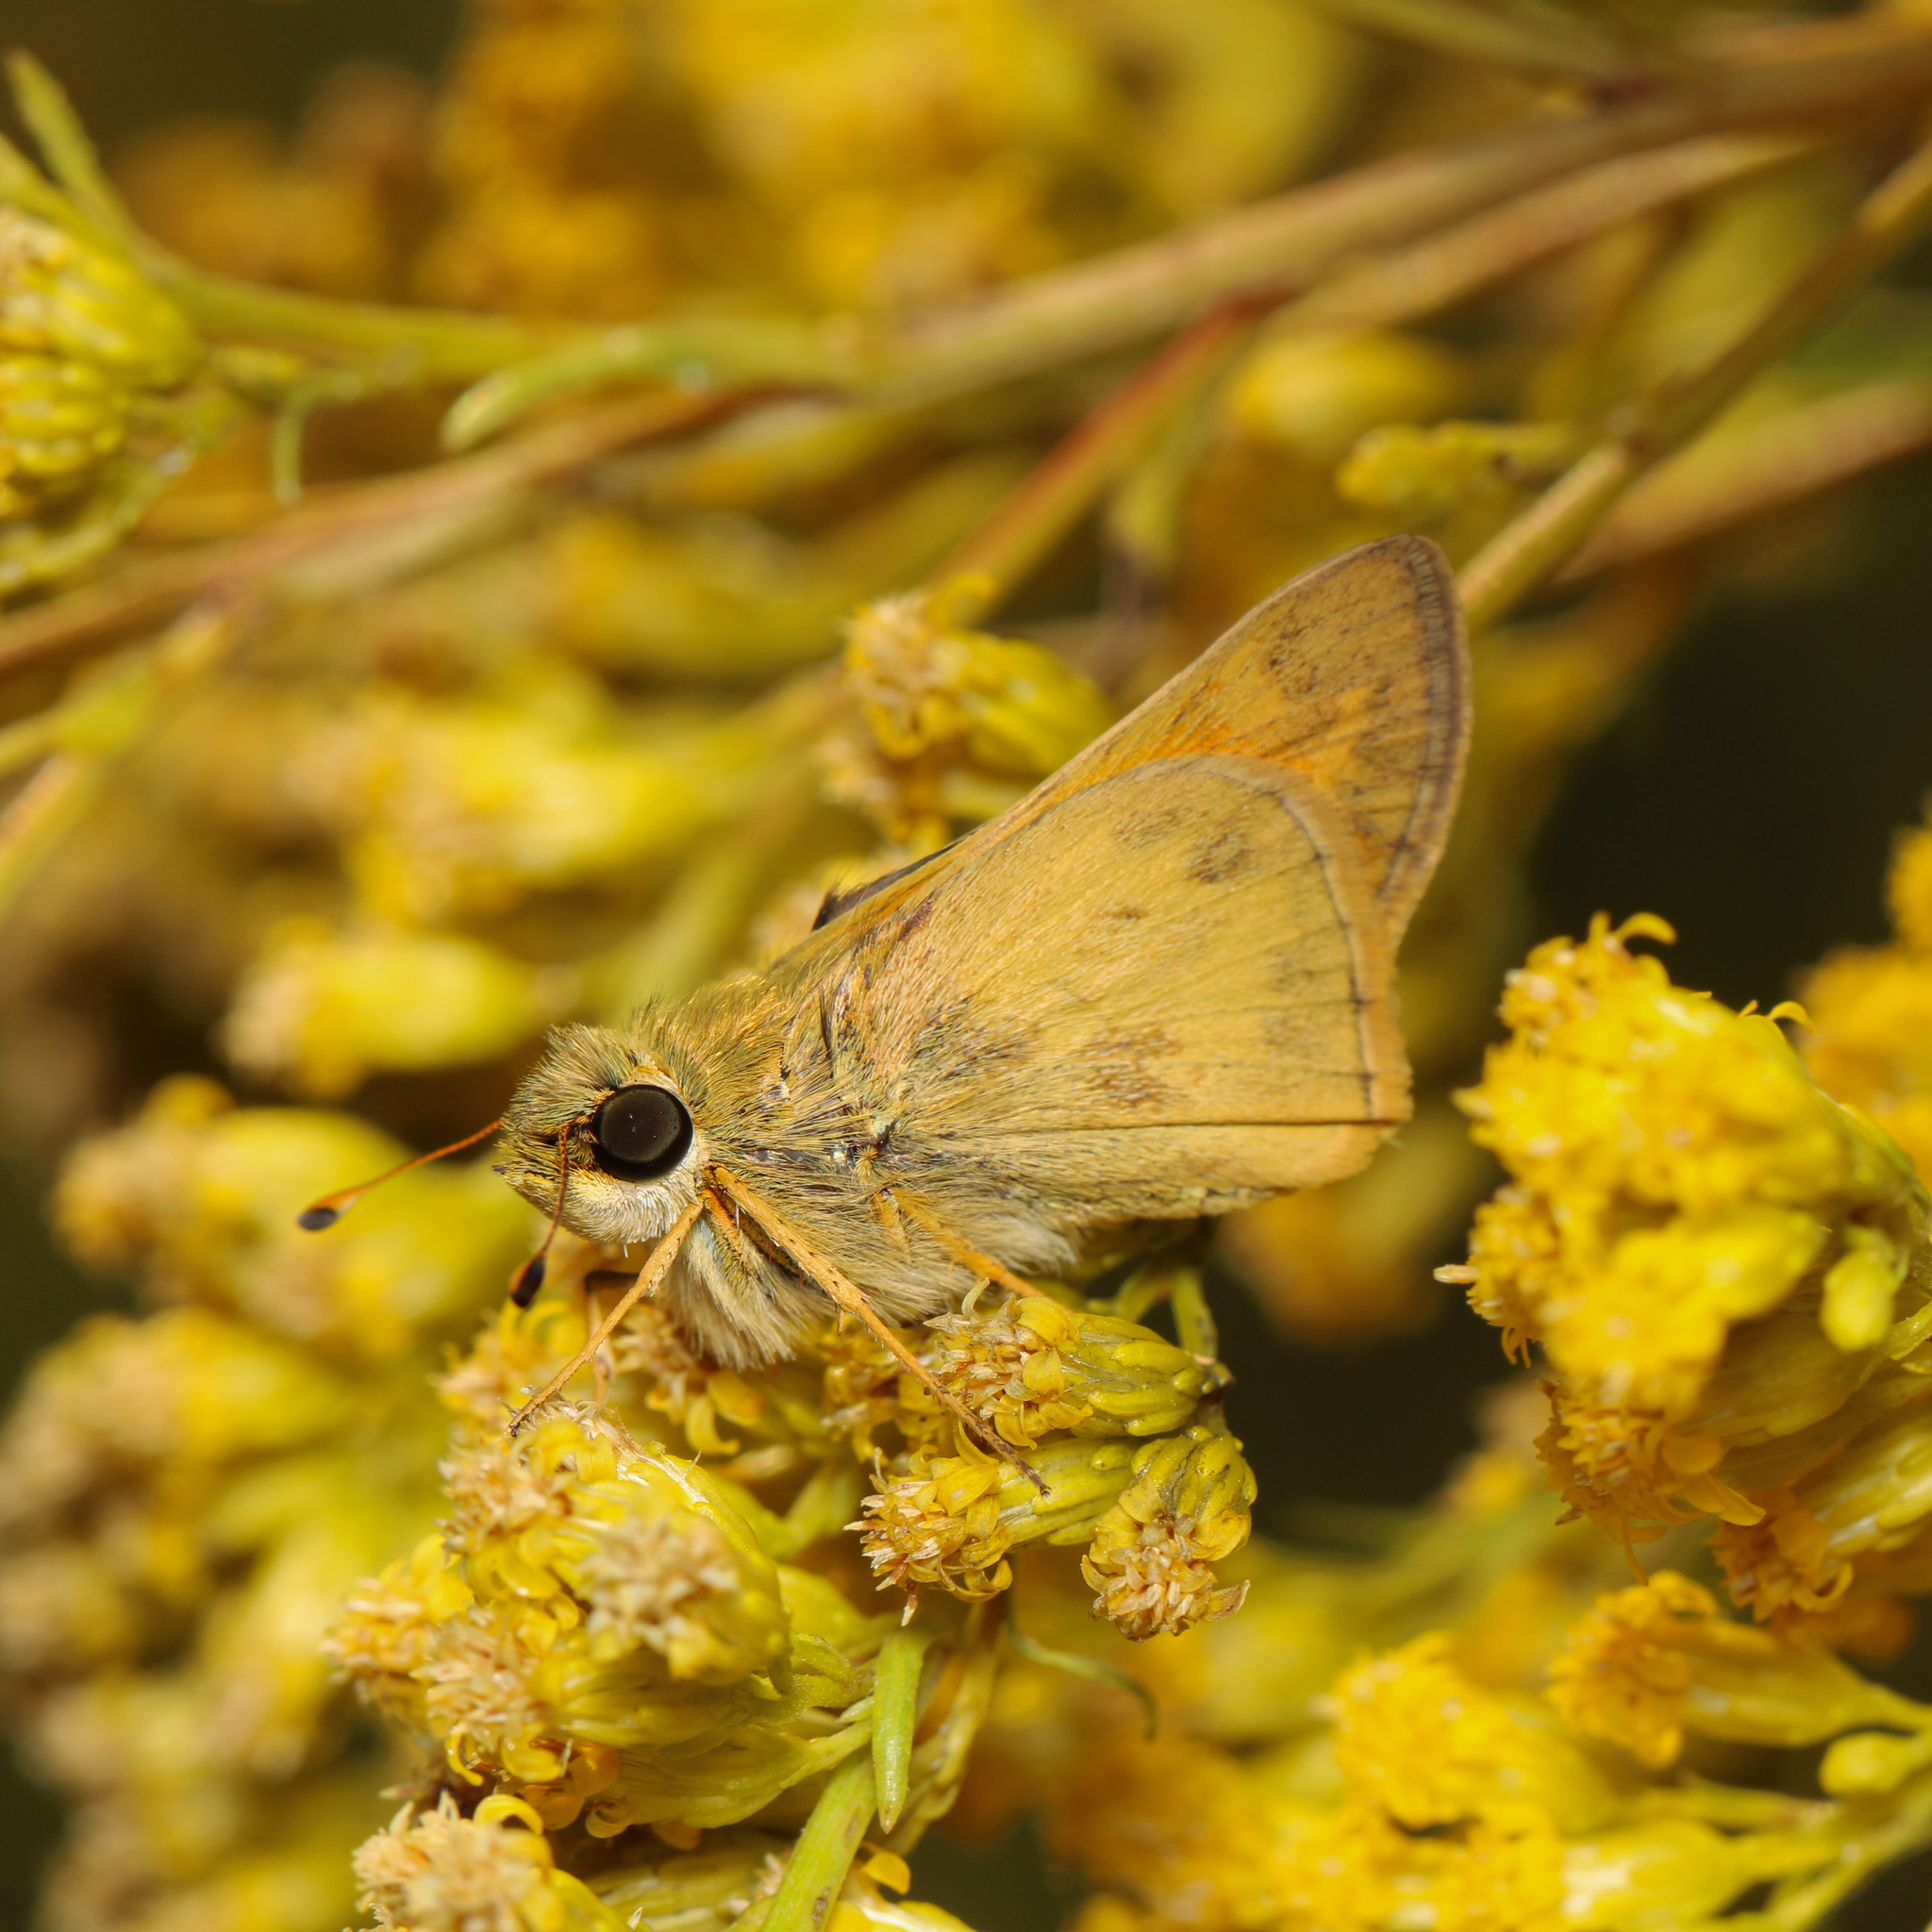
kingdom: Animalia
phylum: Arthropoda
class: Insecta
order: Lepidoptera
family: Hesperiidae
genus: Atalopedes
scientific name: Atalopedes
